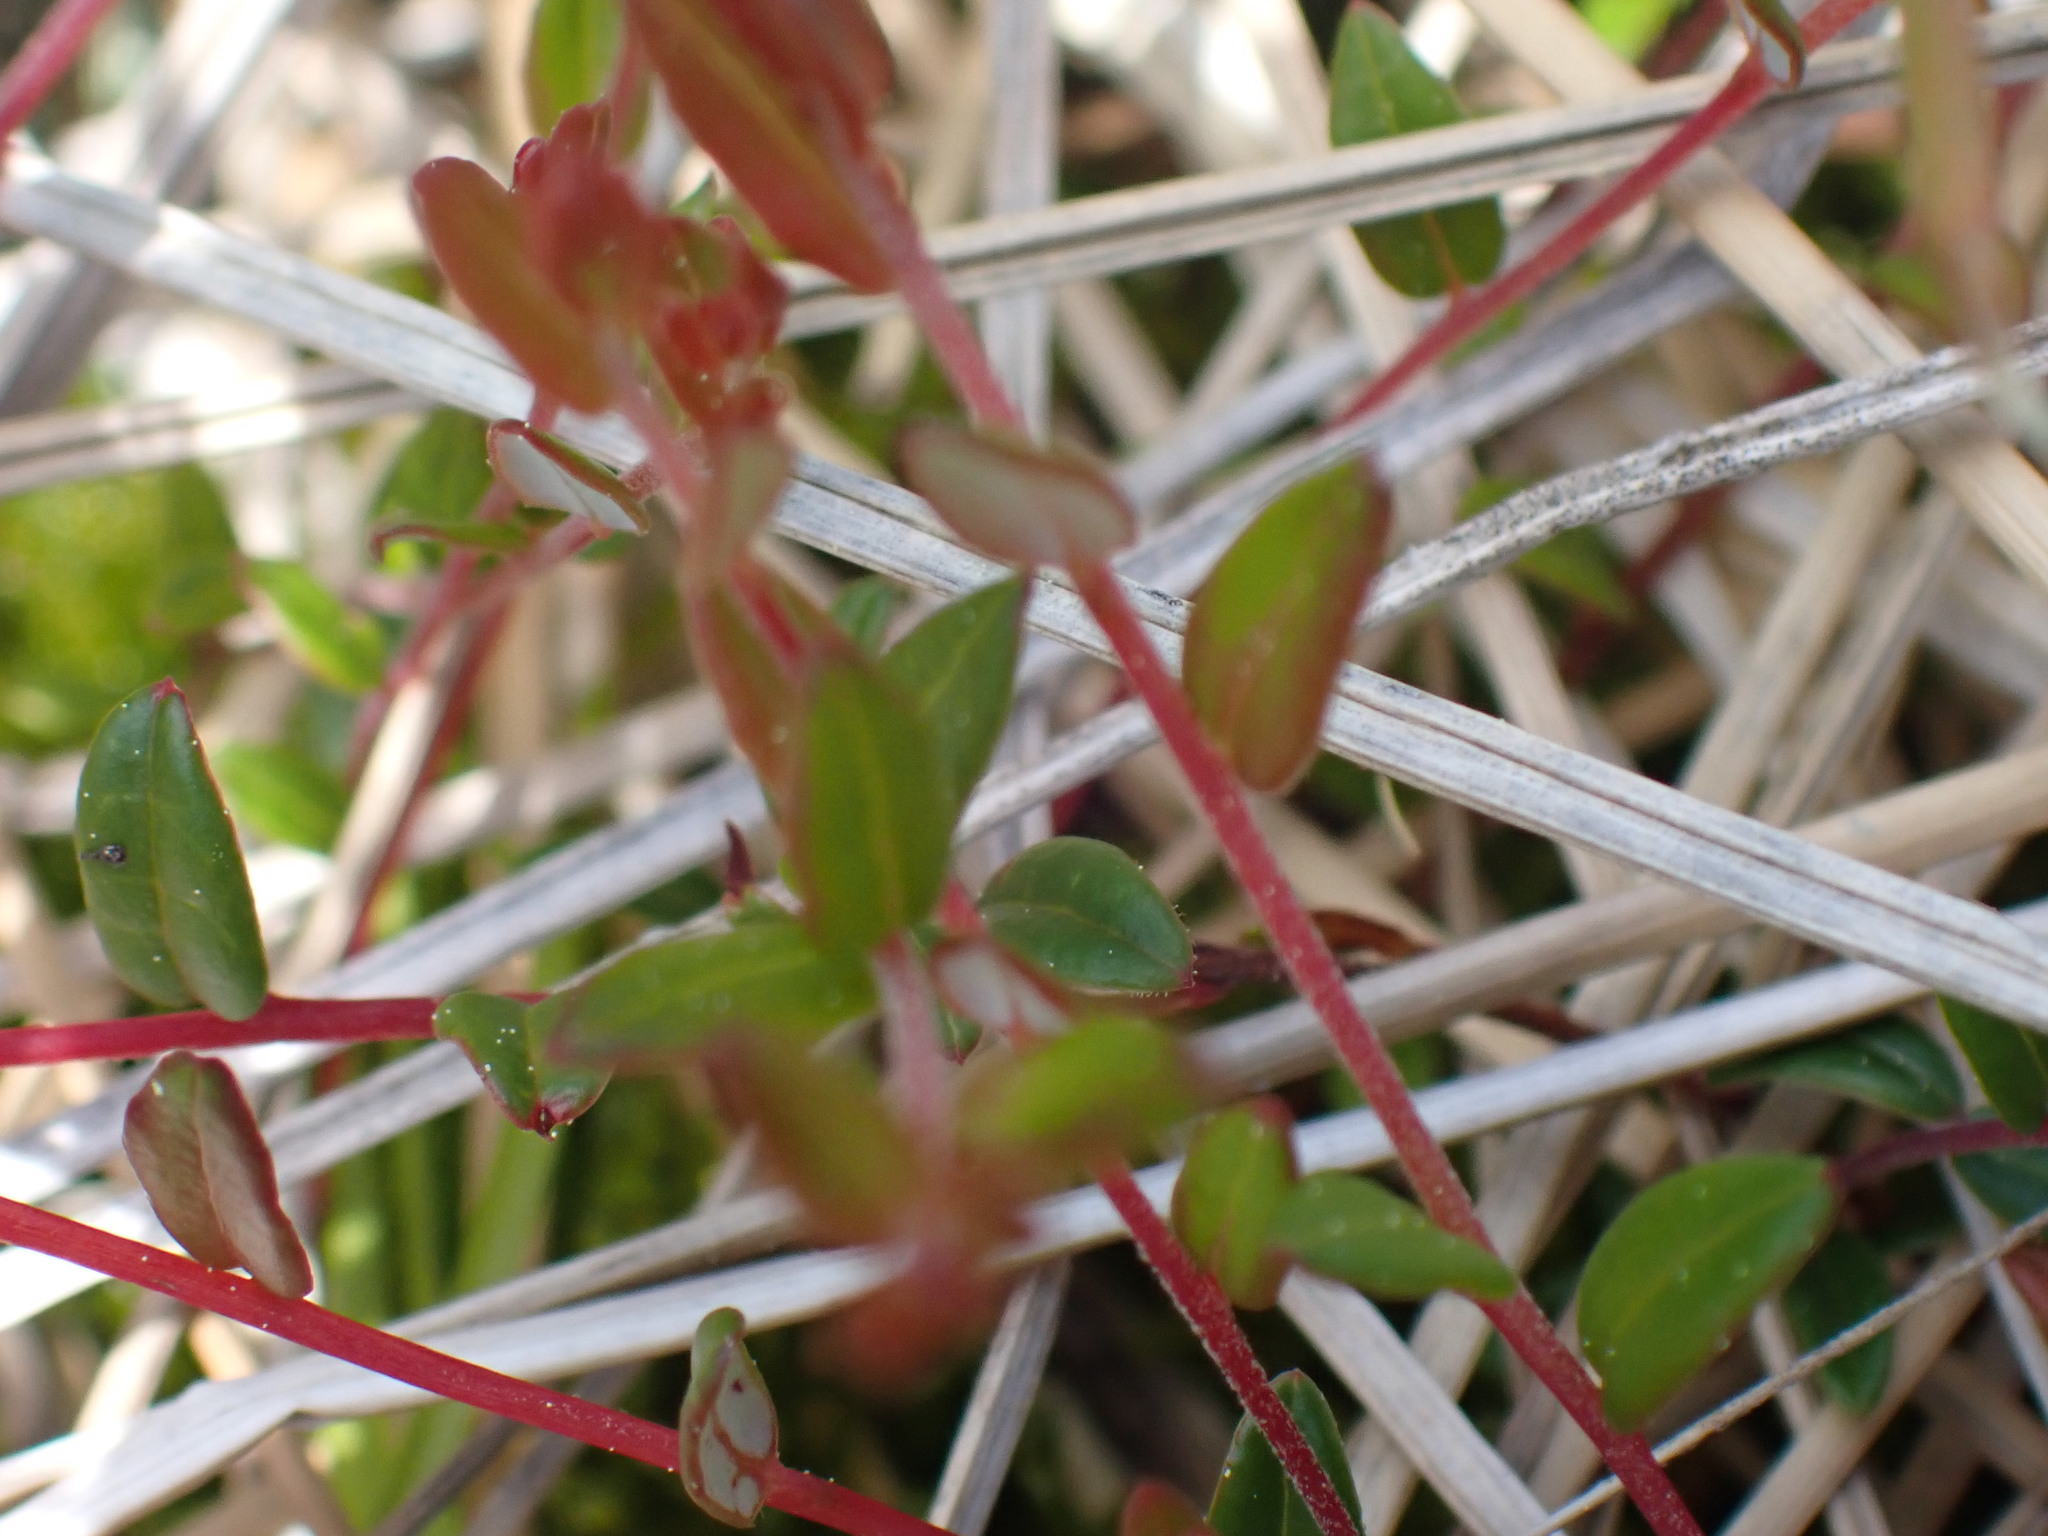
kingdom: Plantae
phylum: Tracheophyta
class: Magnoliopsida
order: Ericales
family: Ericaceae
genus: Vaccinium
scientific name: Vaccinium oxycoccos
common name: Cranberry
